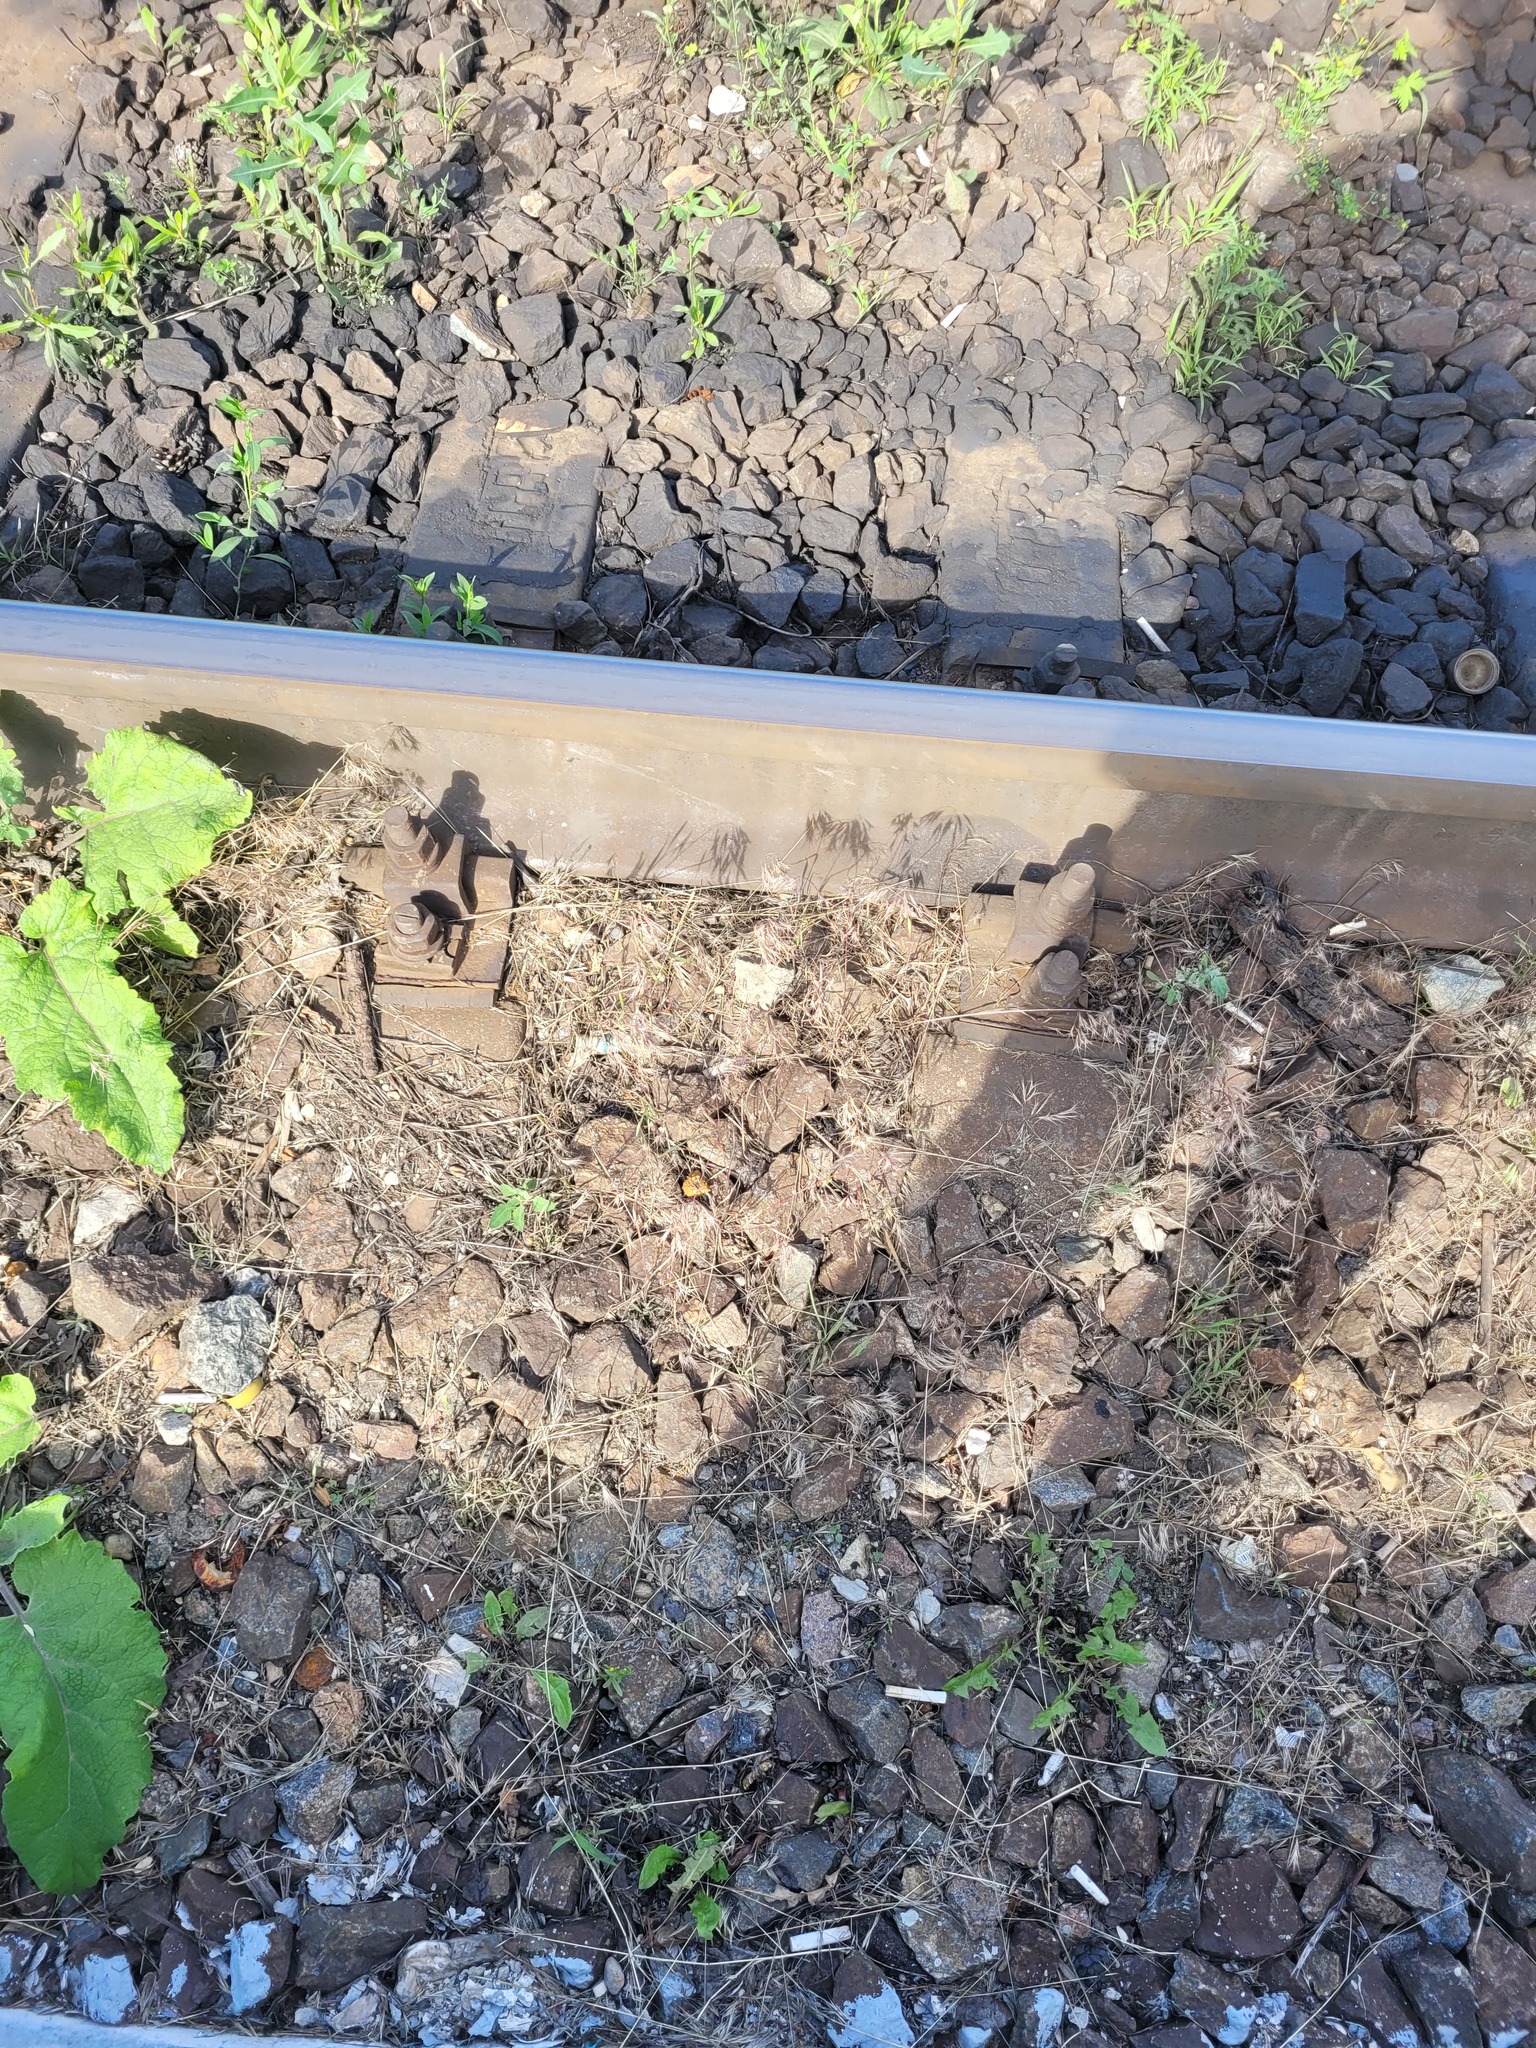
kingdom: Plantae
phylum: Tracheophyta
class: Liliopsida
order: Poales
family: Poaceae
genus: Bromus
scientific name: Bromus tectorum
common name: Cheatgrass
